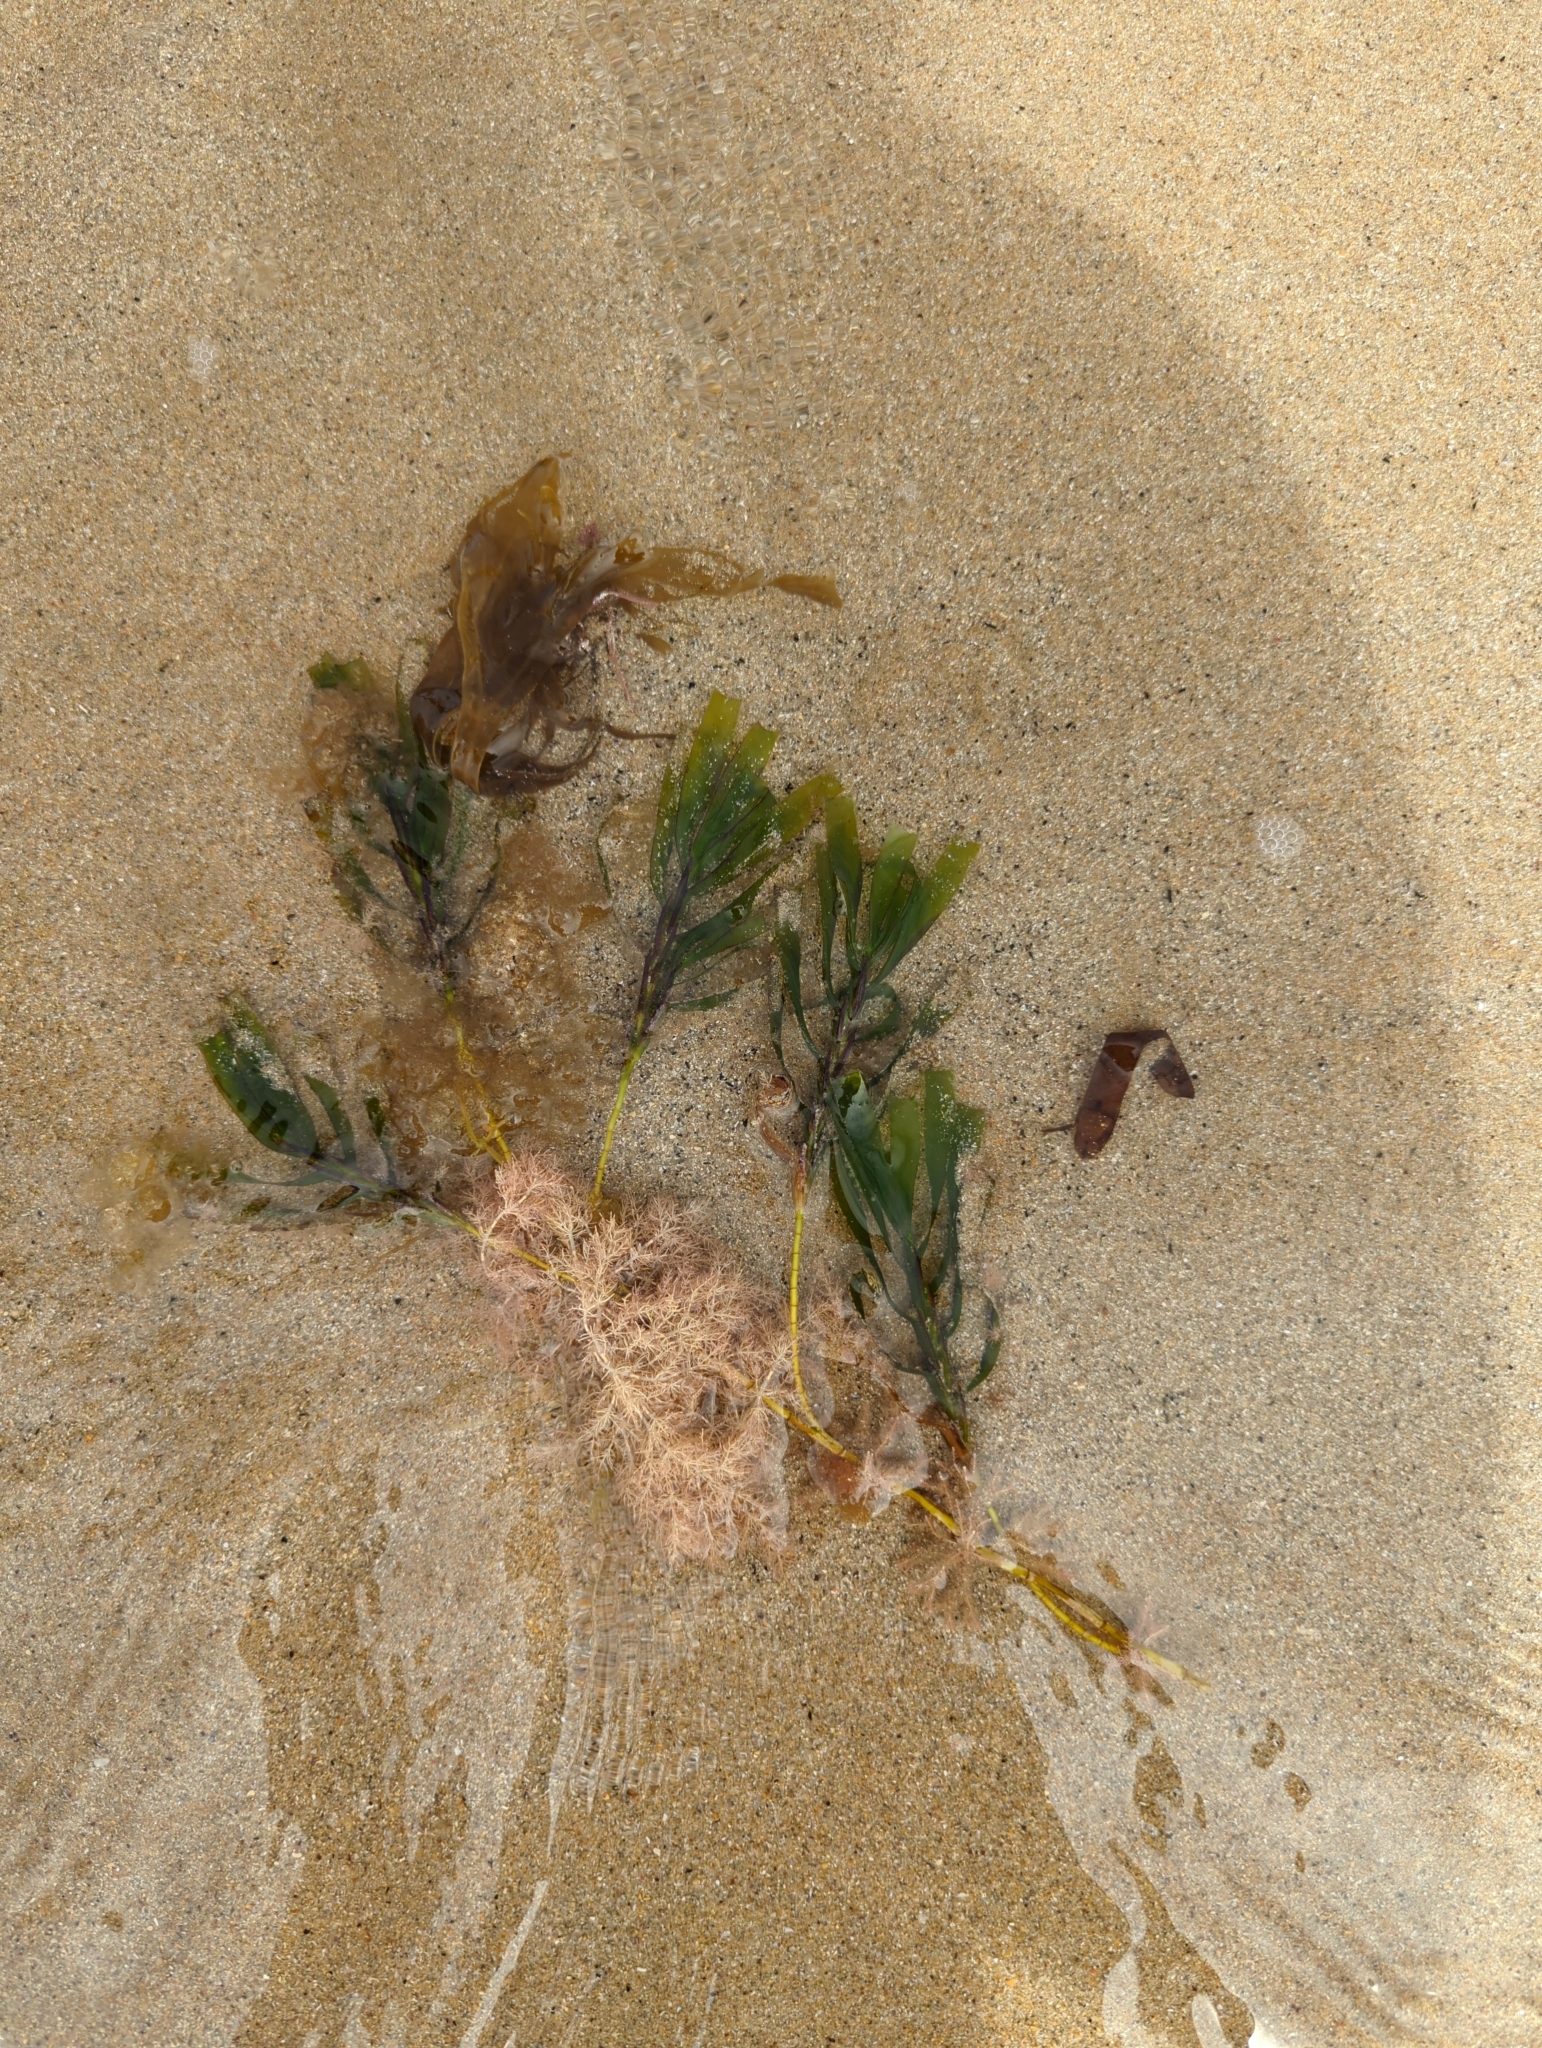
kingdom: Plantae
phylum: Tracheophyta
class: Liliopsida
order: Alismatales
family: Cymodoceaceae
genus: Amphibolis
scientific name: Amphibolis antarctica
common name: Species code: aa
